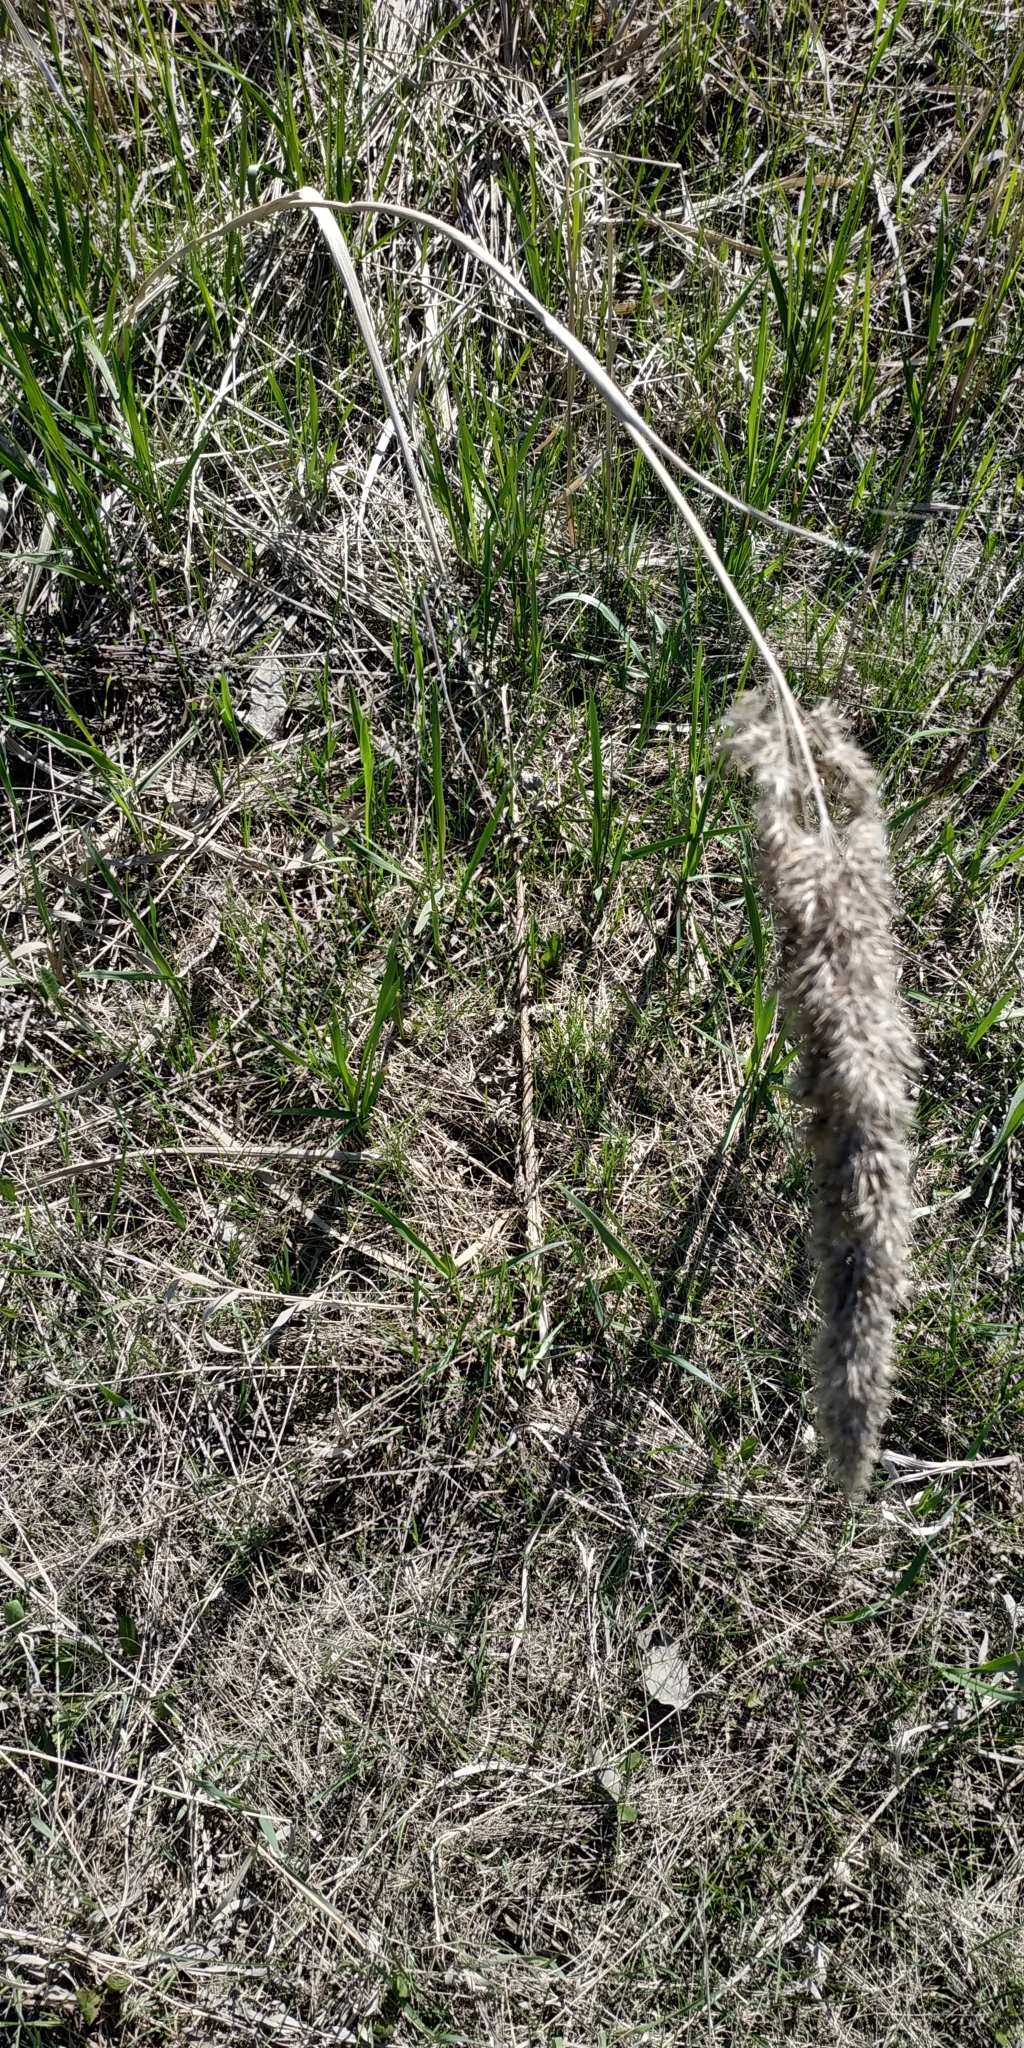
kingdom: Plantae
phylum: Tracheophyta
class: Liliopsida
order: Poales
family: Poaceae
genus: Calamagrostis
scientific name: Calamagrostis epigejos
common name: Wood small-reed
